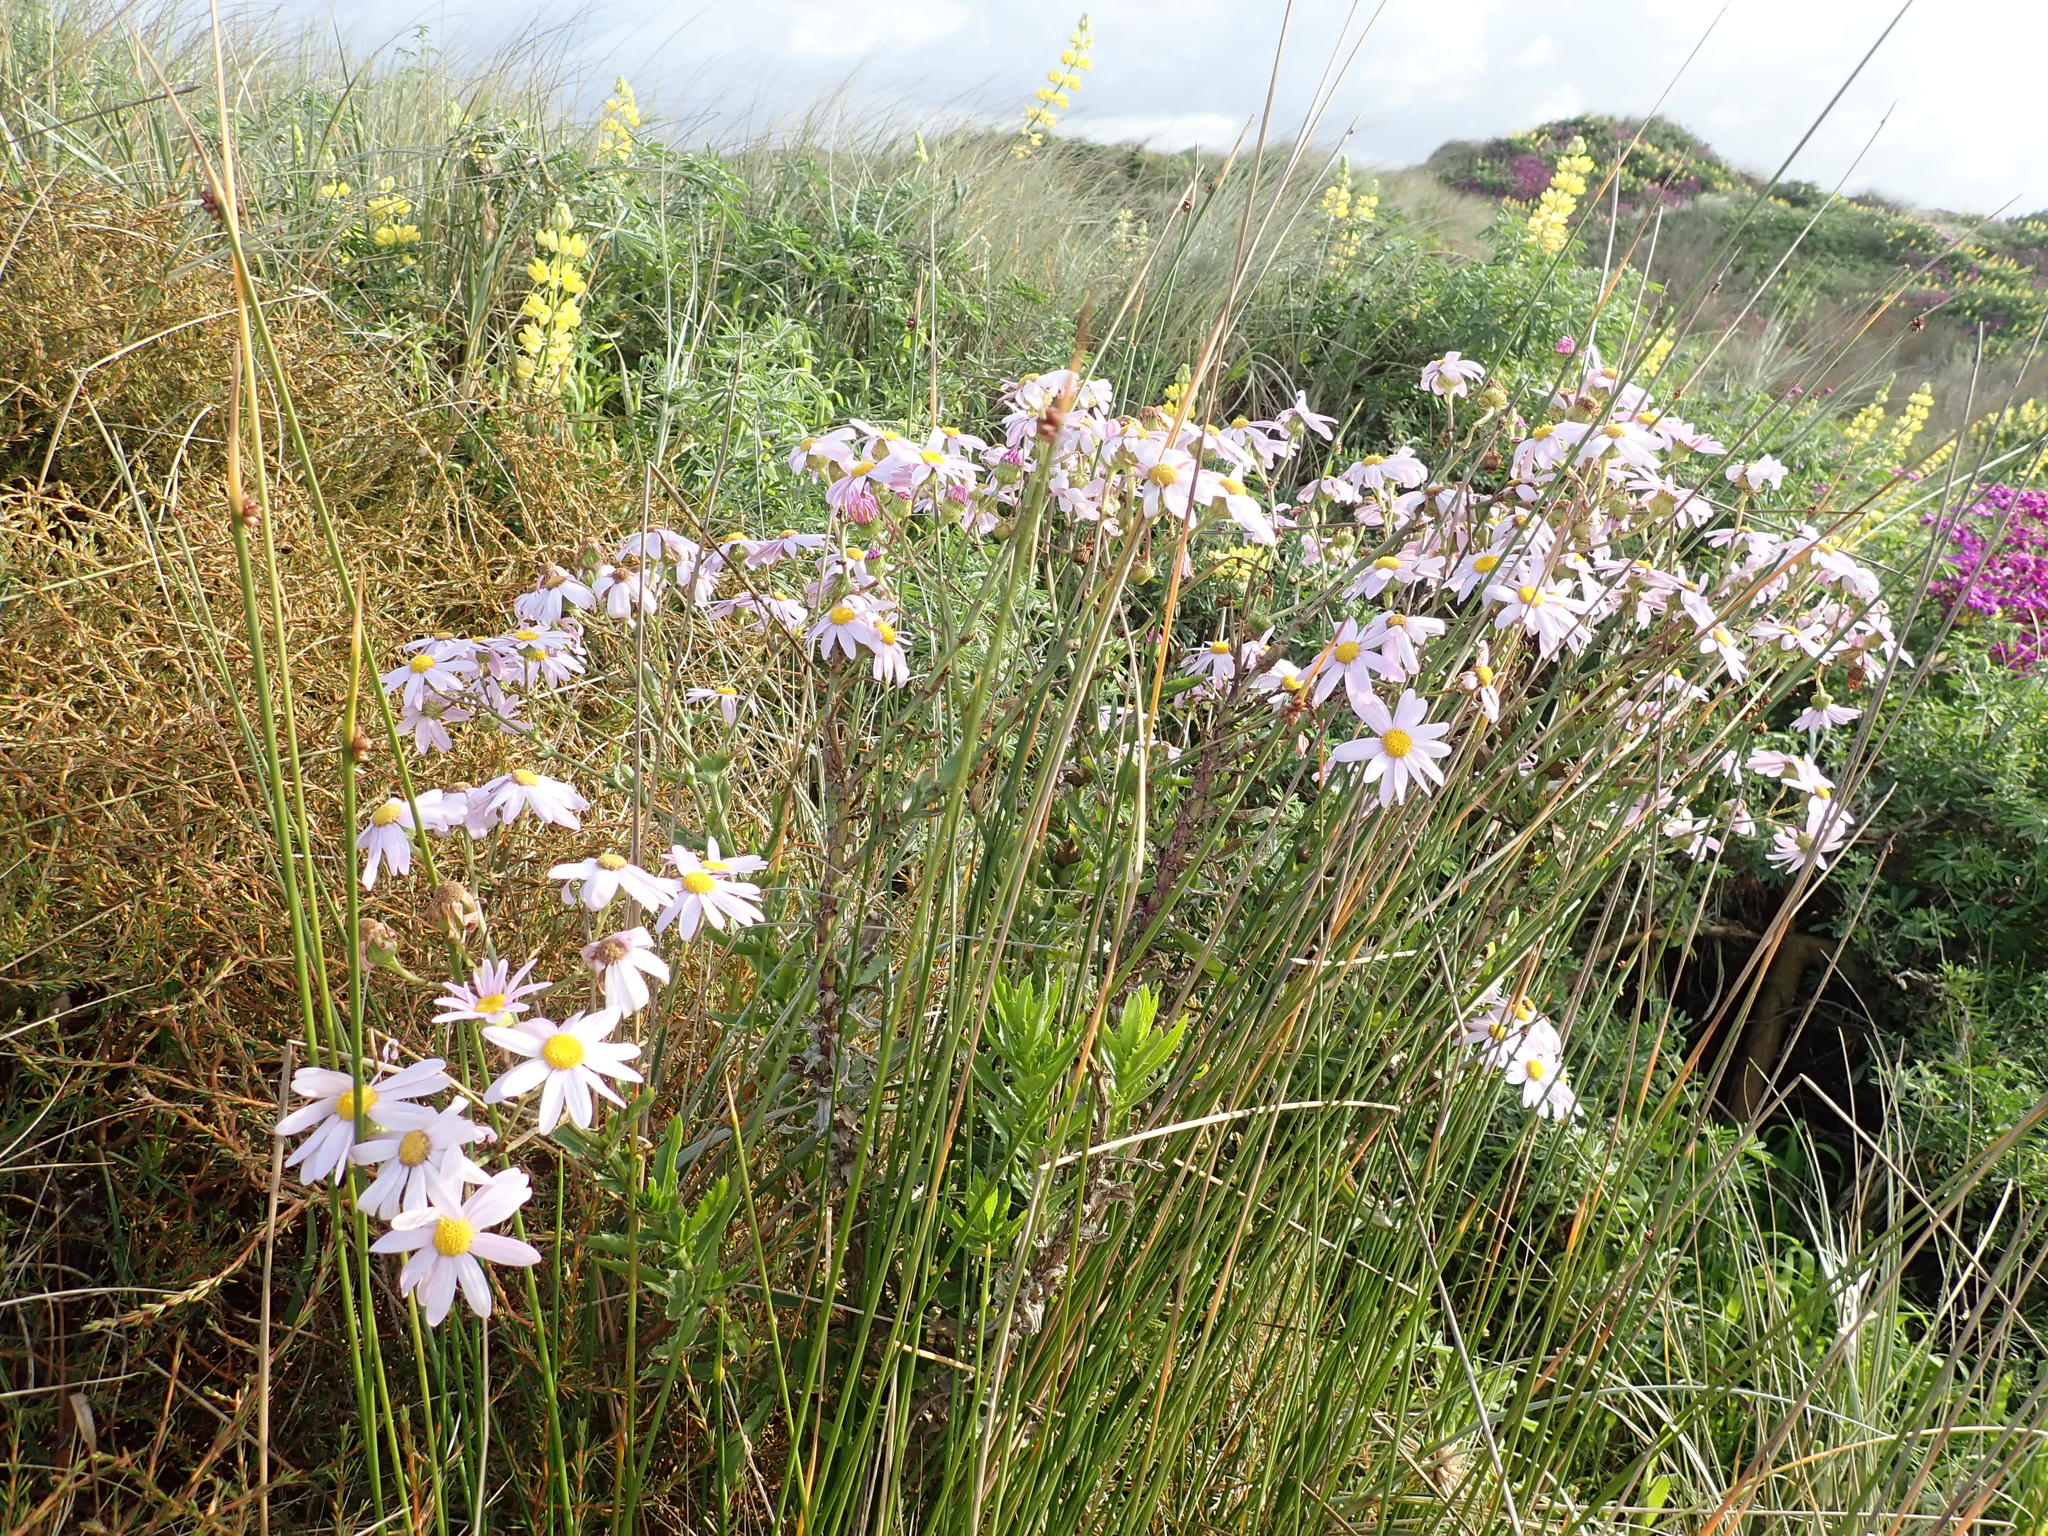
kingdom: Plantae
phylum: Tracheophyta
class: Magnoliopsida
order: Asterales
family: Asteraceae
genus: Senecio
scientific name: Senecio glastifolius
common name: Woad-leaved ragwort
